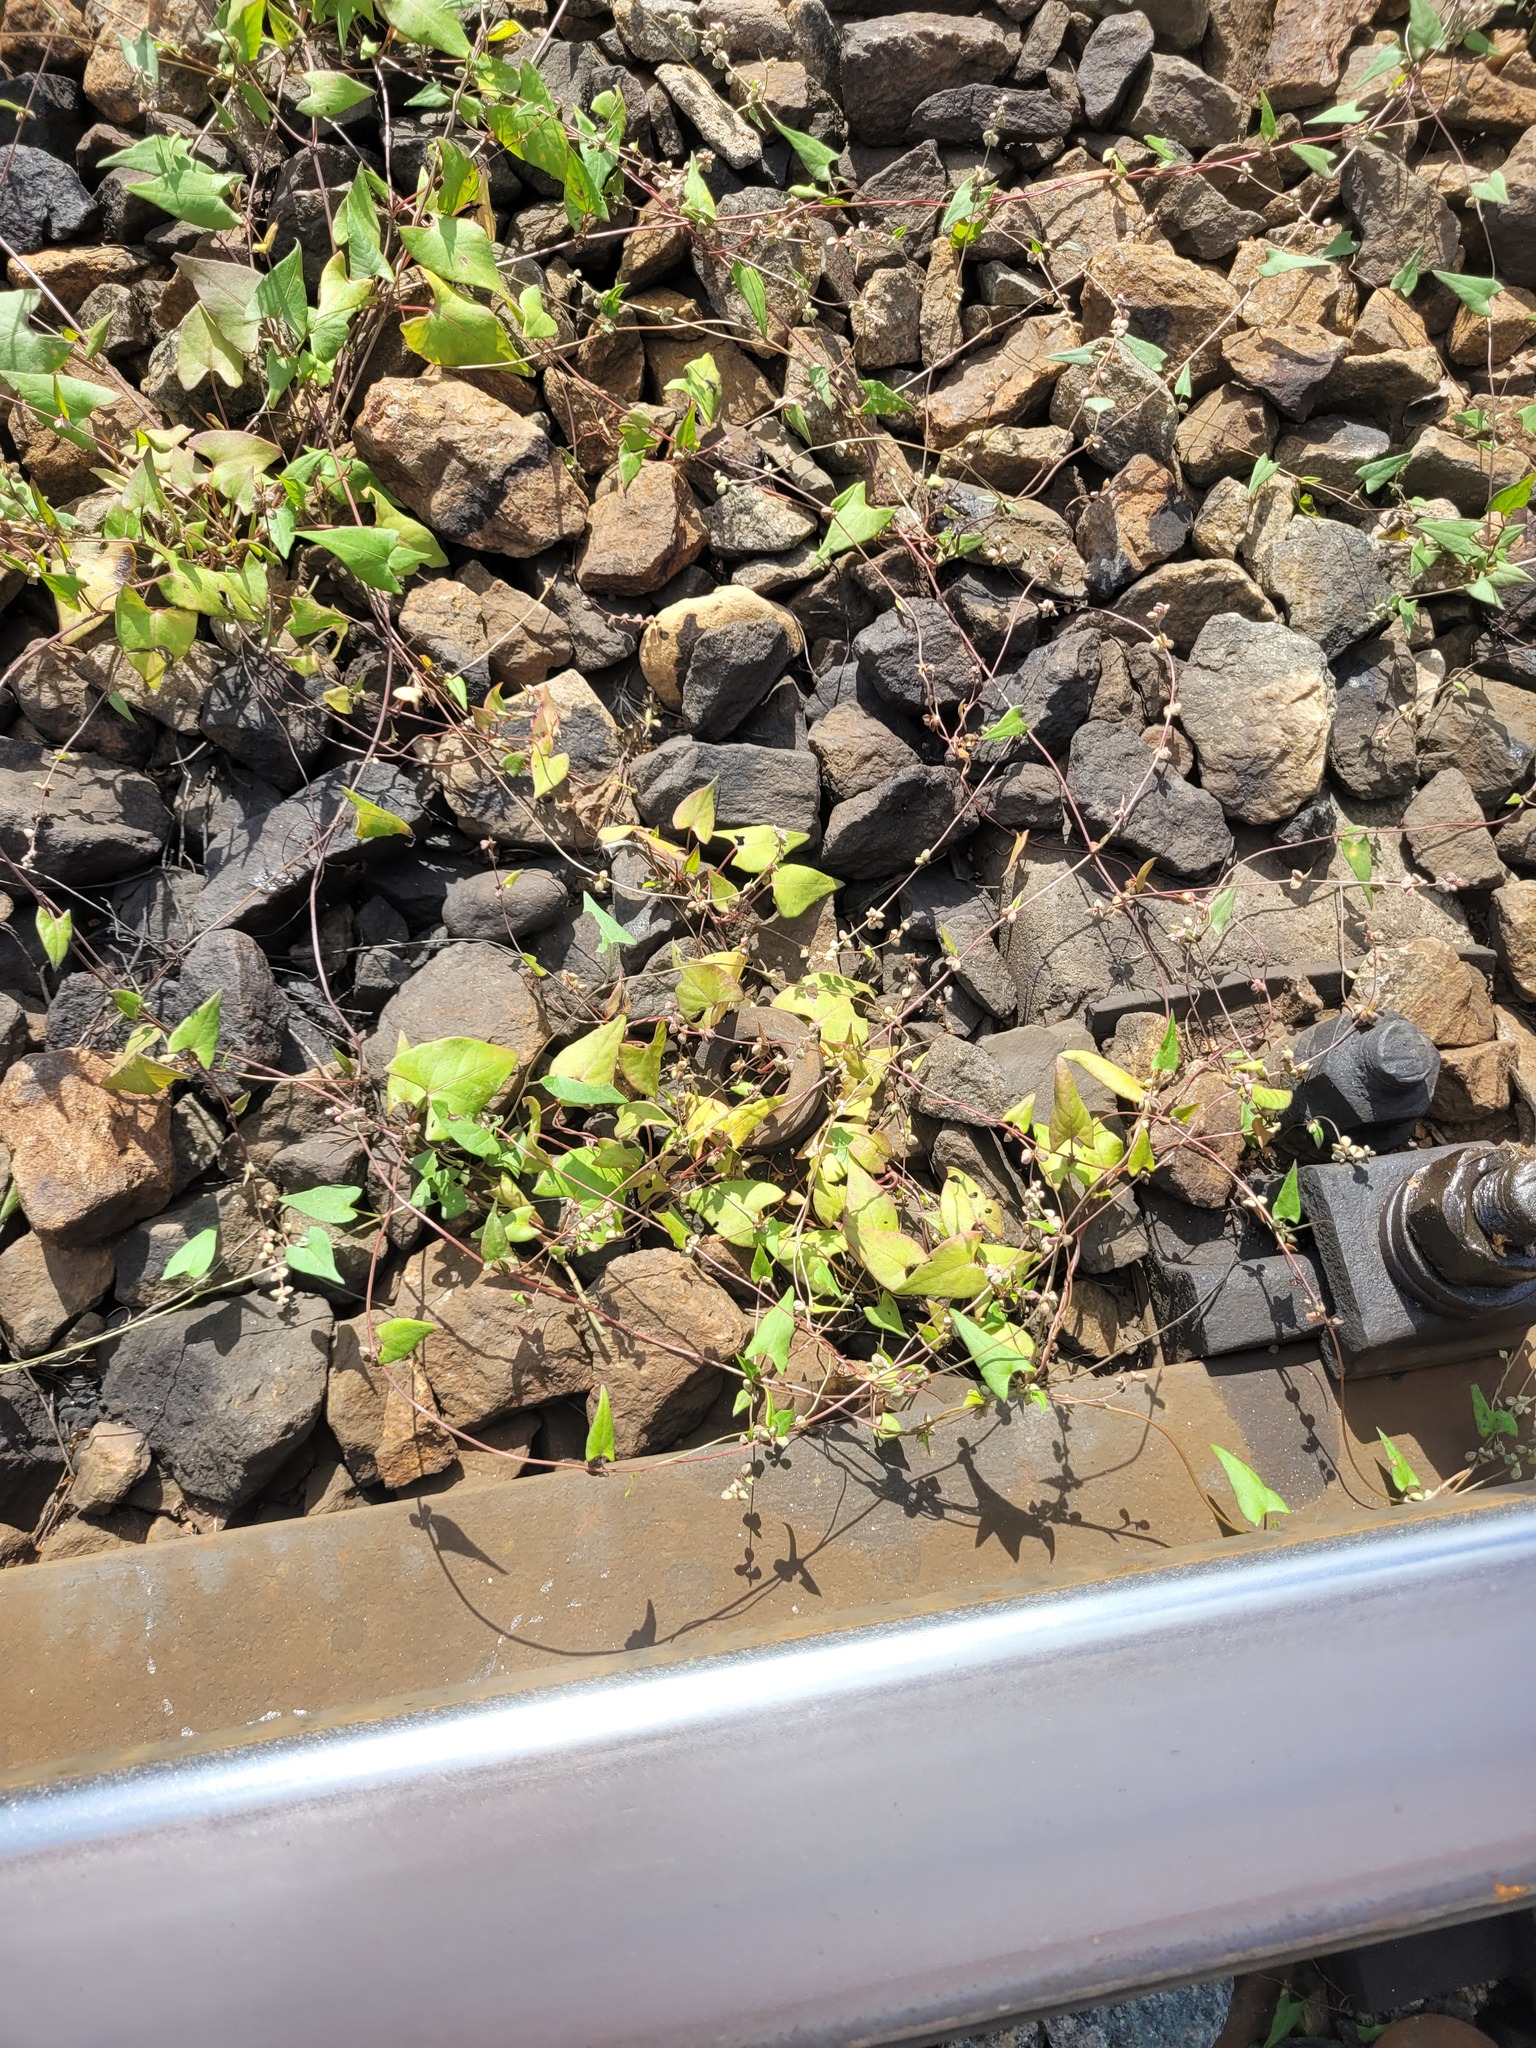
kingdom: Plantae
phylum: Tracheophyta
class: Magnoliopsida
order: Caryophyllales
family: Polygonaceae
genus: Fallopia
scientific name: Fallopia convolvulus
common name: Black bindweed
